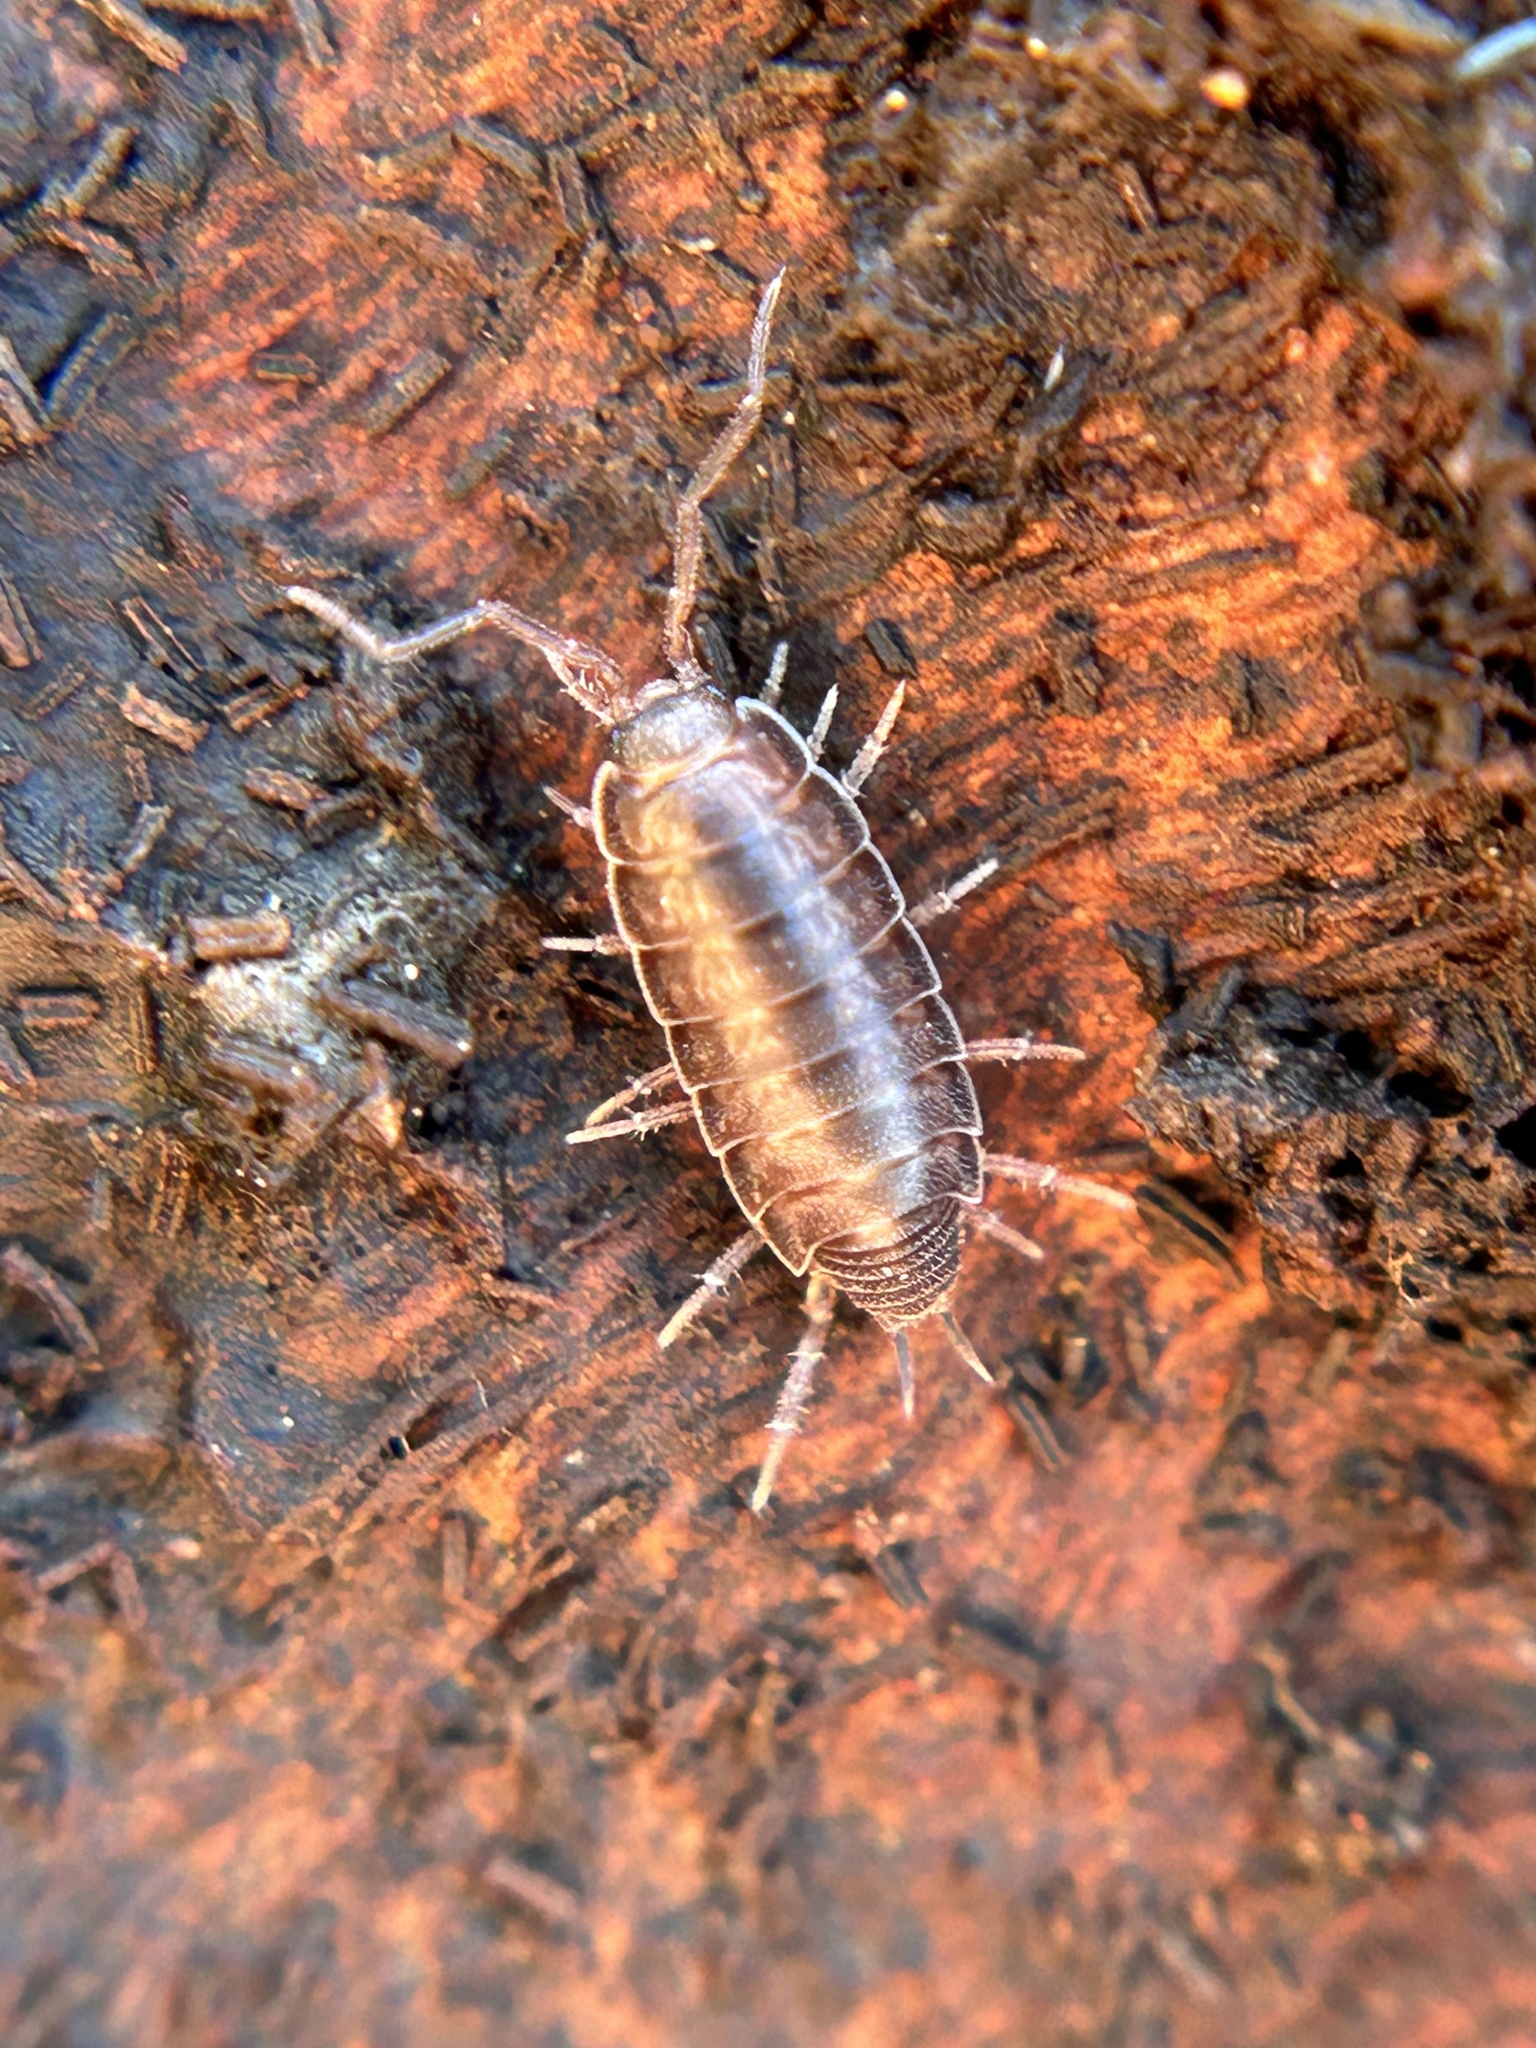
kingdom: Animalia
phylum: Arthropoda
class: Malacostraca
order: Isopoda
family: Halophilosciidae
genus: Littorophiloscia
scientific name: Littorophiloscia richardsonae
